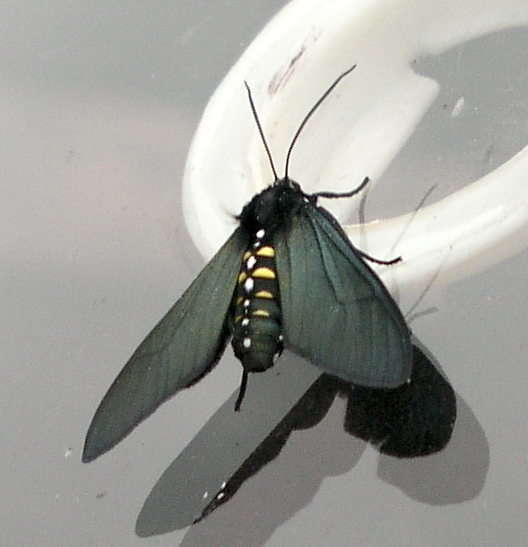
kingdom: Animalia
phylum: Arthropoda
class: Insecta
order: Lepidoptera
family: Erebidae
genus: Chrysocale
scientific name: Chrysocale ferens
